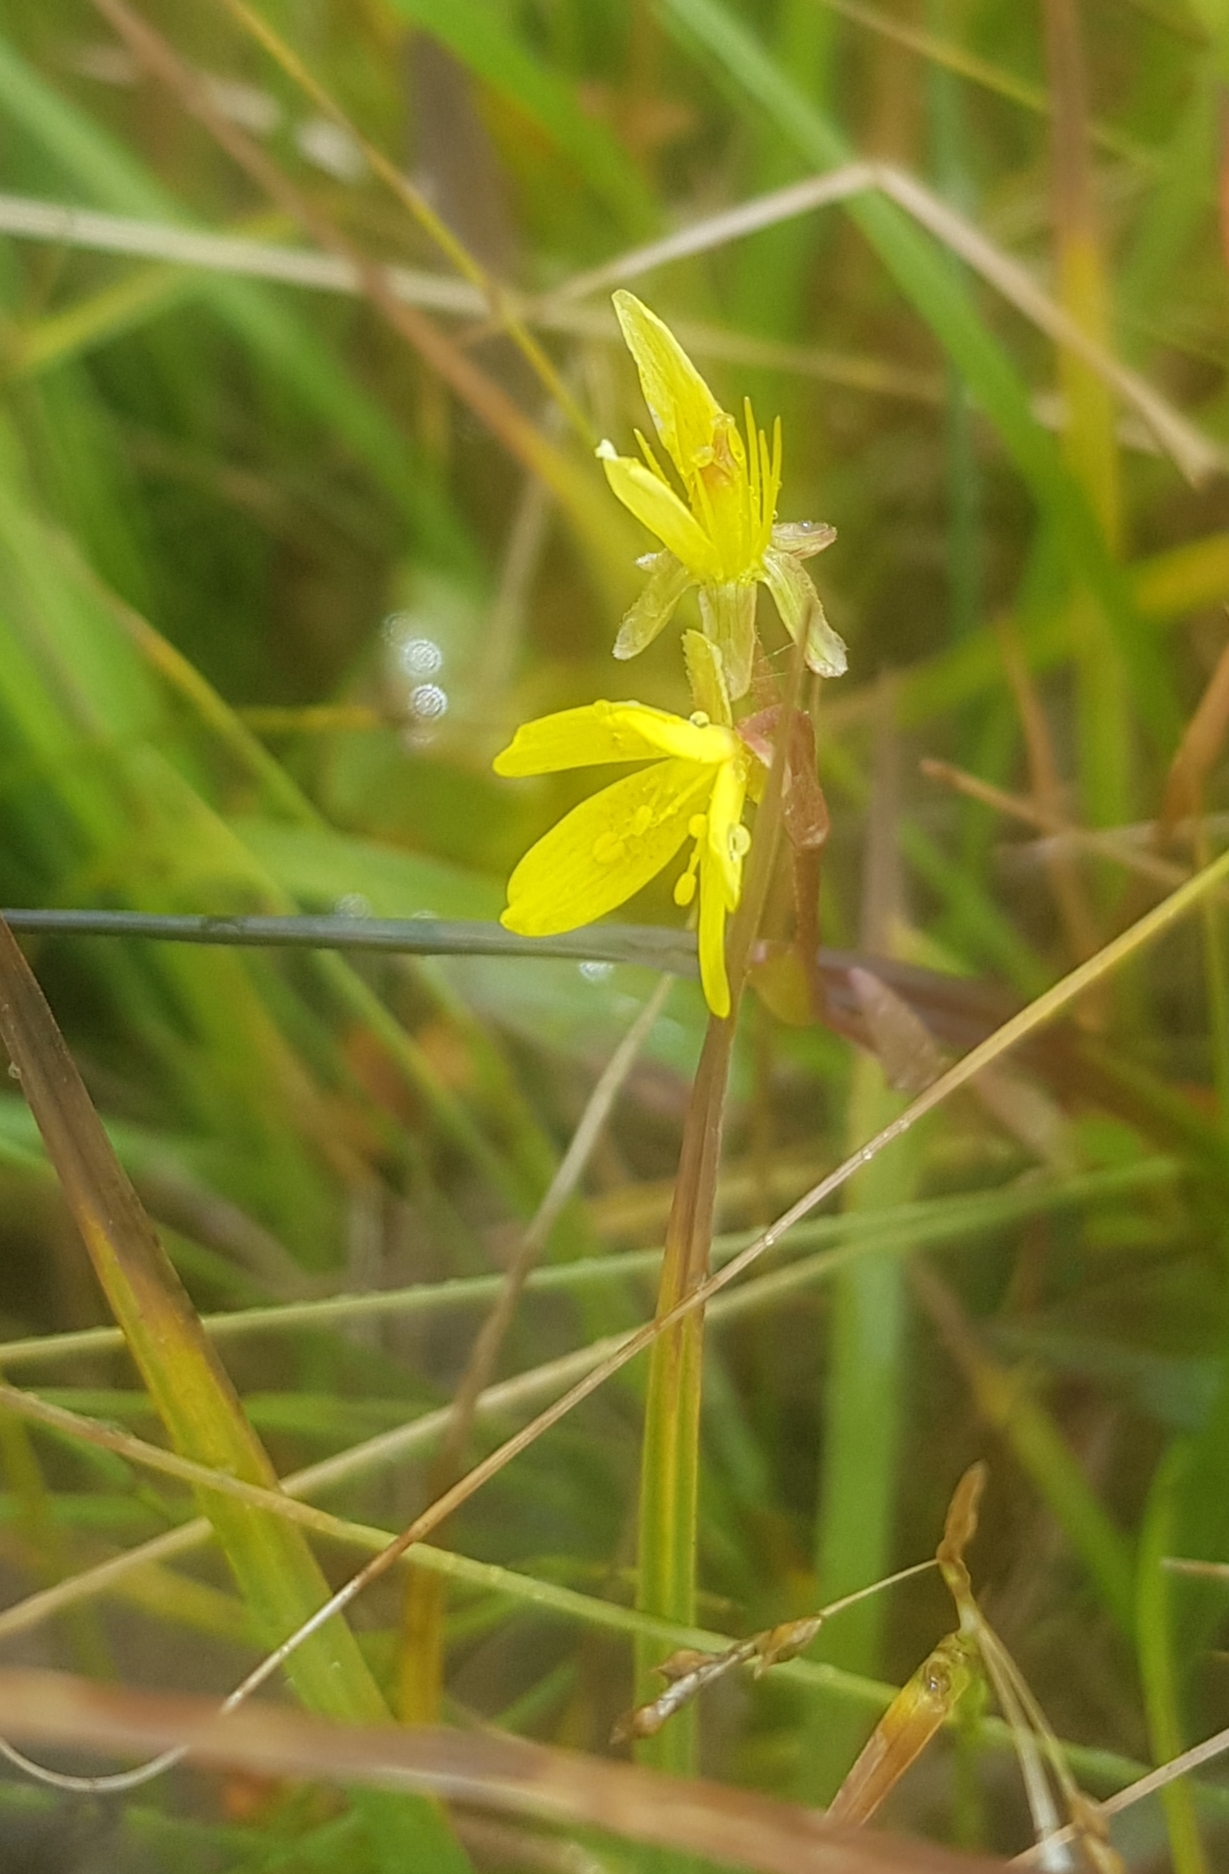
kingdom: Plantae
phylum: Tracheophyta
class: Magnoliopsida
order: Saxifragales
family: Saxifragaceae
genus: Saxifraga
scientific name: Saxifraga hirculus
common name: Yellow marsh saxifrage
